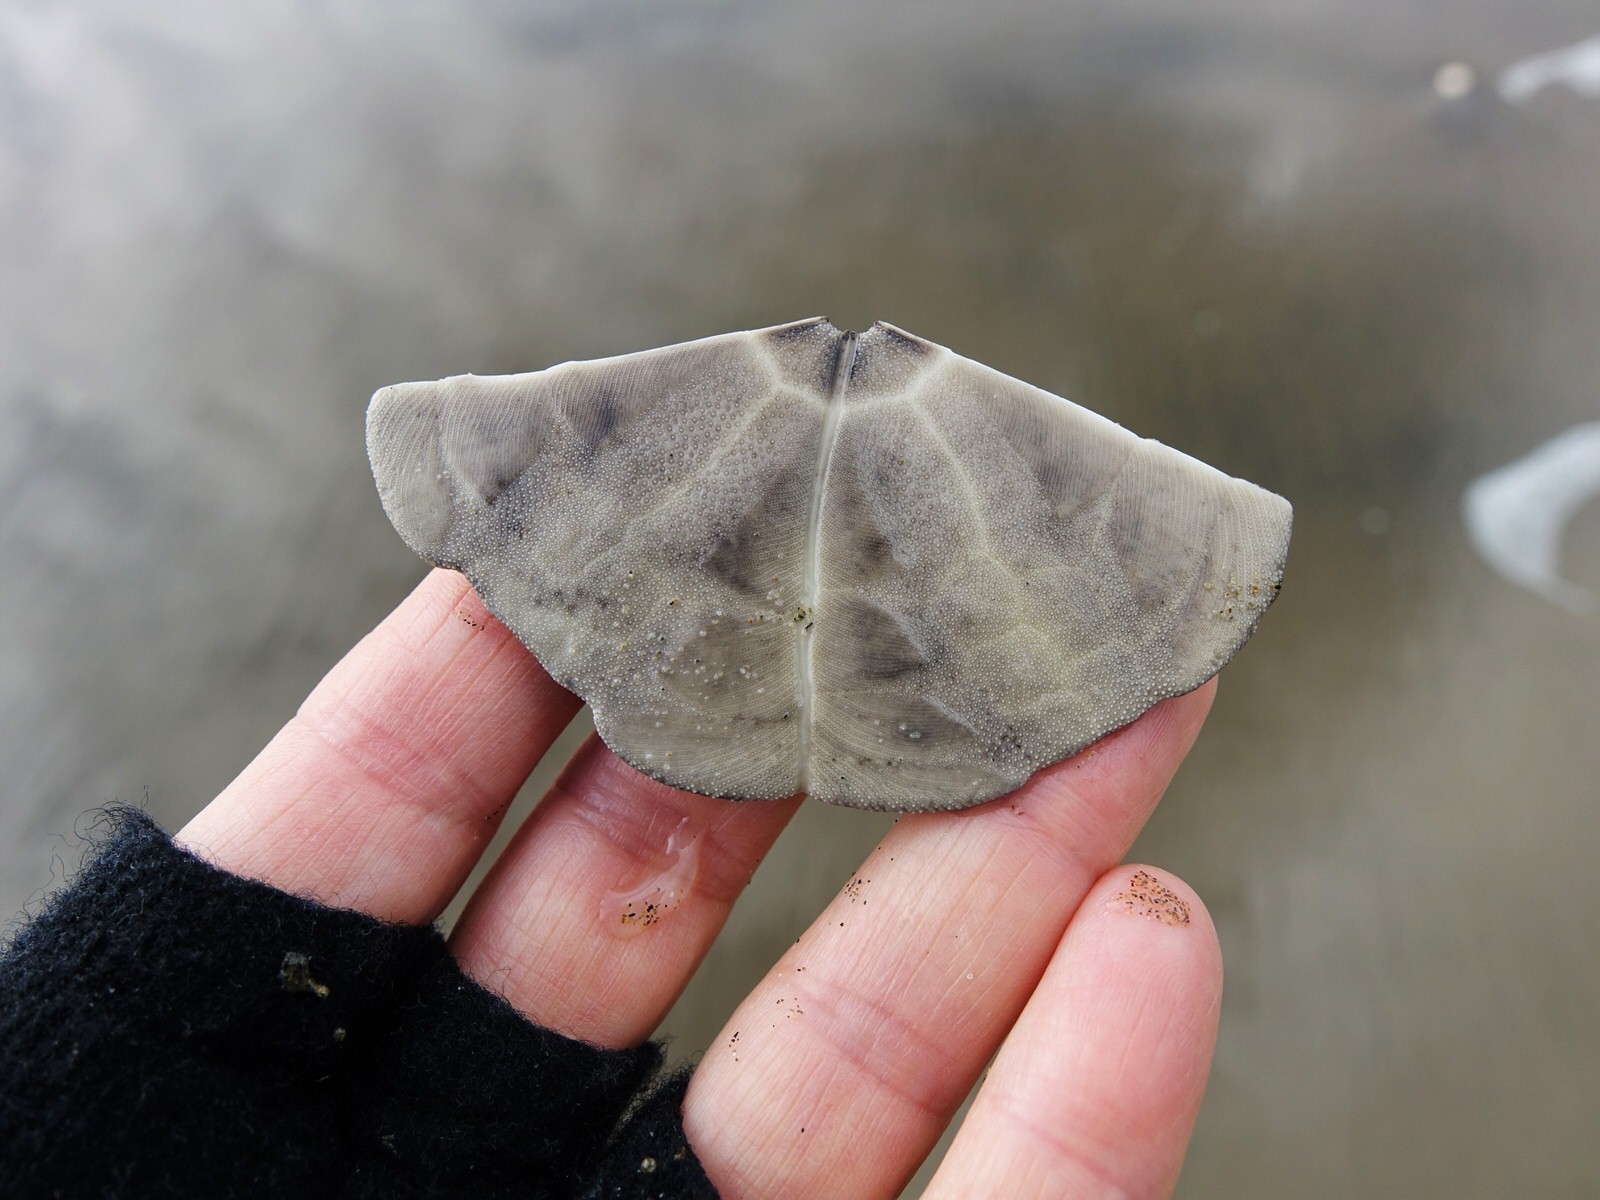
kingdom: Animalia
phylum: Echinodermata
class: Echinoidea
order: Clypeasteroida
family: Clypeasteridae
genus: Fellaster
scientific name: Fellaster zelandiae
